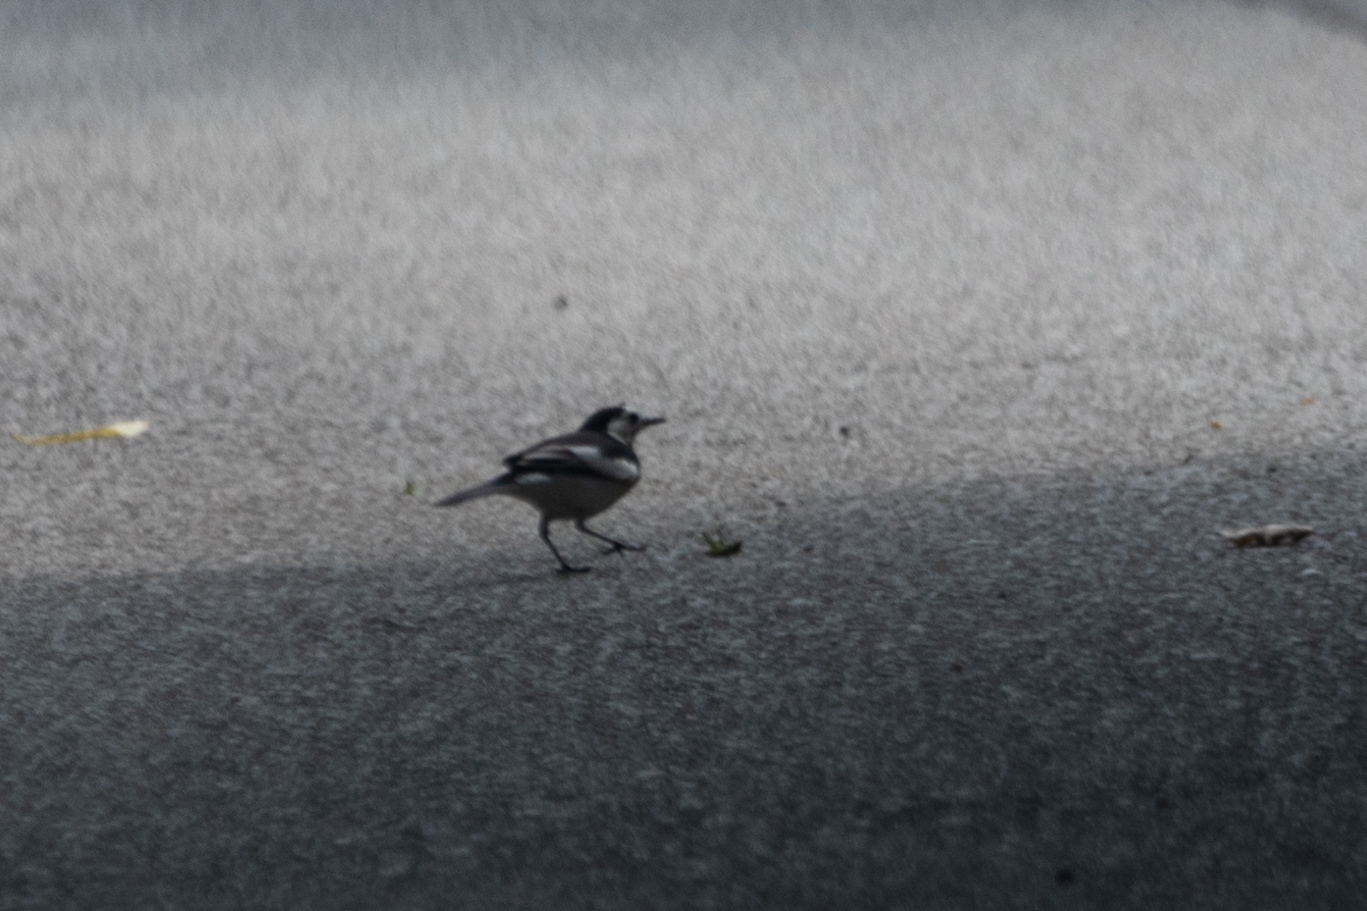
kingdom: Animalia
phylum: Chordata
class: Aves
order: Passeriformes
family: Motacillidae
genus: Motacilla
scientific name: Motacilla alba
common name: White wagtail
